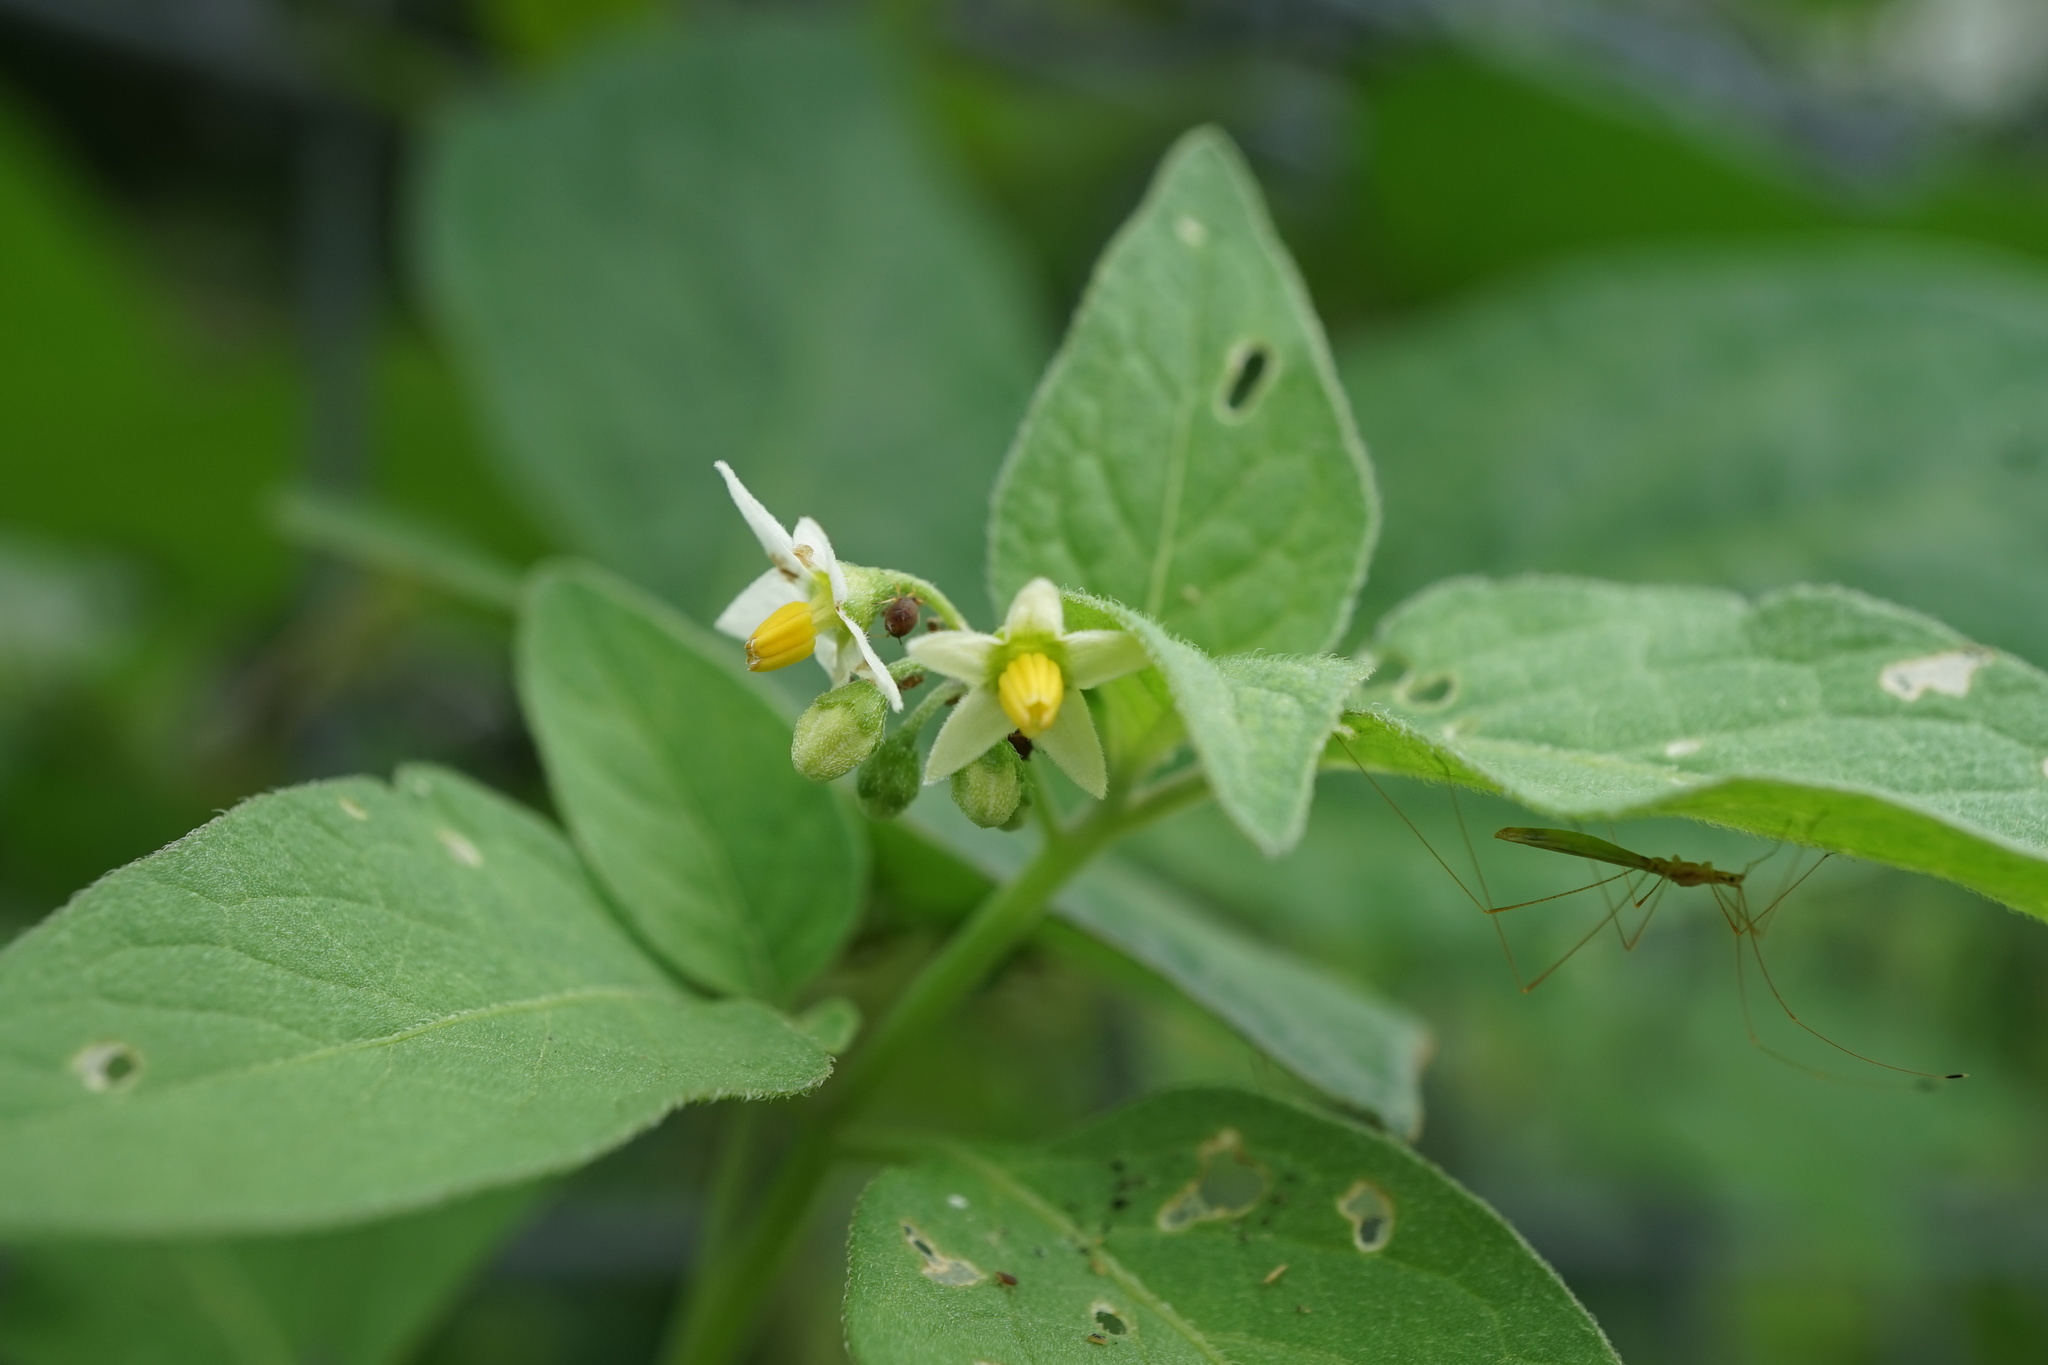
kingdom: Plantae
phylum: Tracheophyta
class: Magnoliopsida
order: Solanales
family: Solanaceae
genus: Solanum
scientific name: Solanum nigrum
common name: Black nightshade
